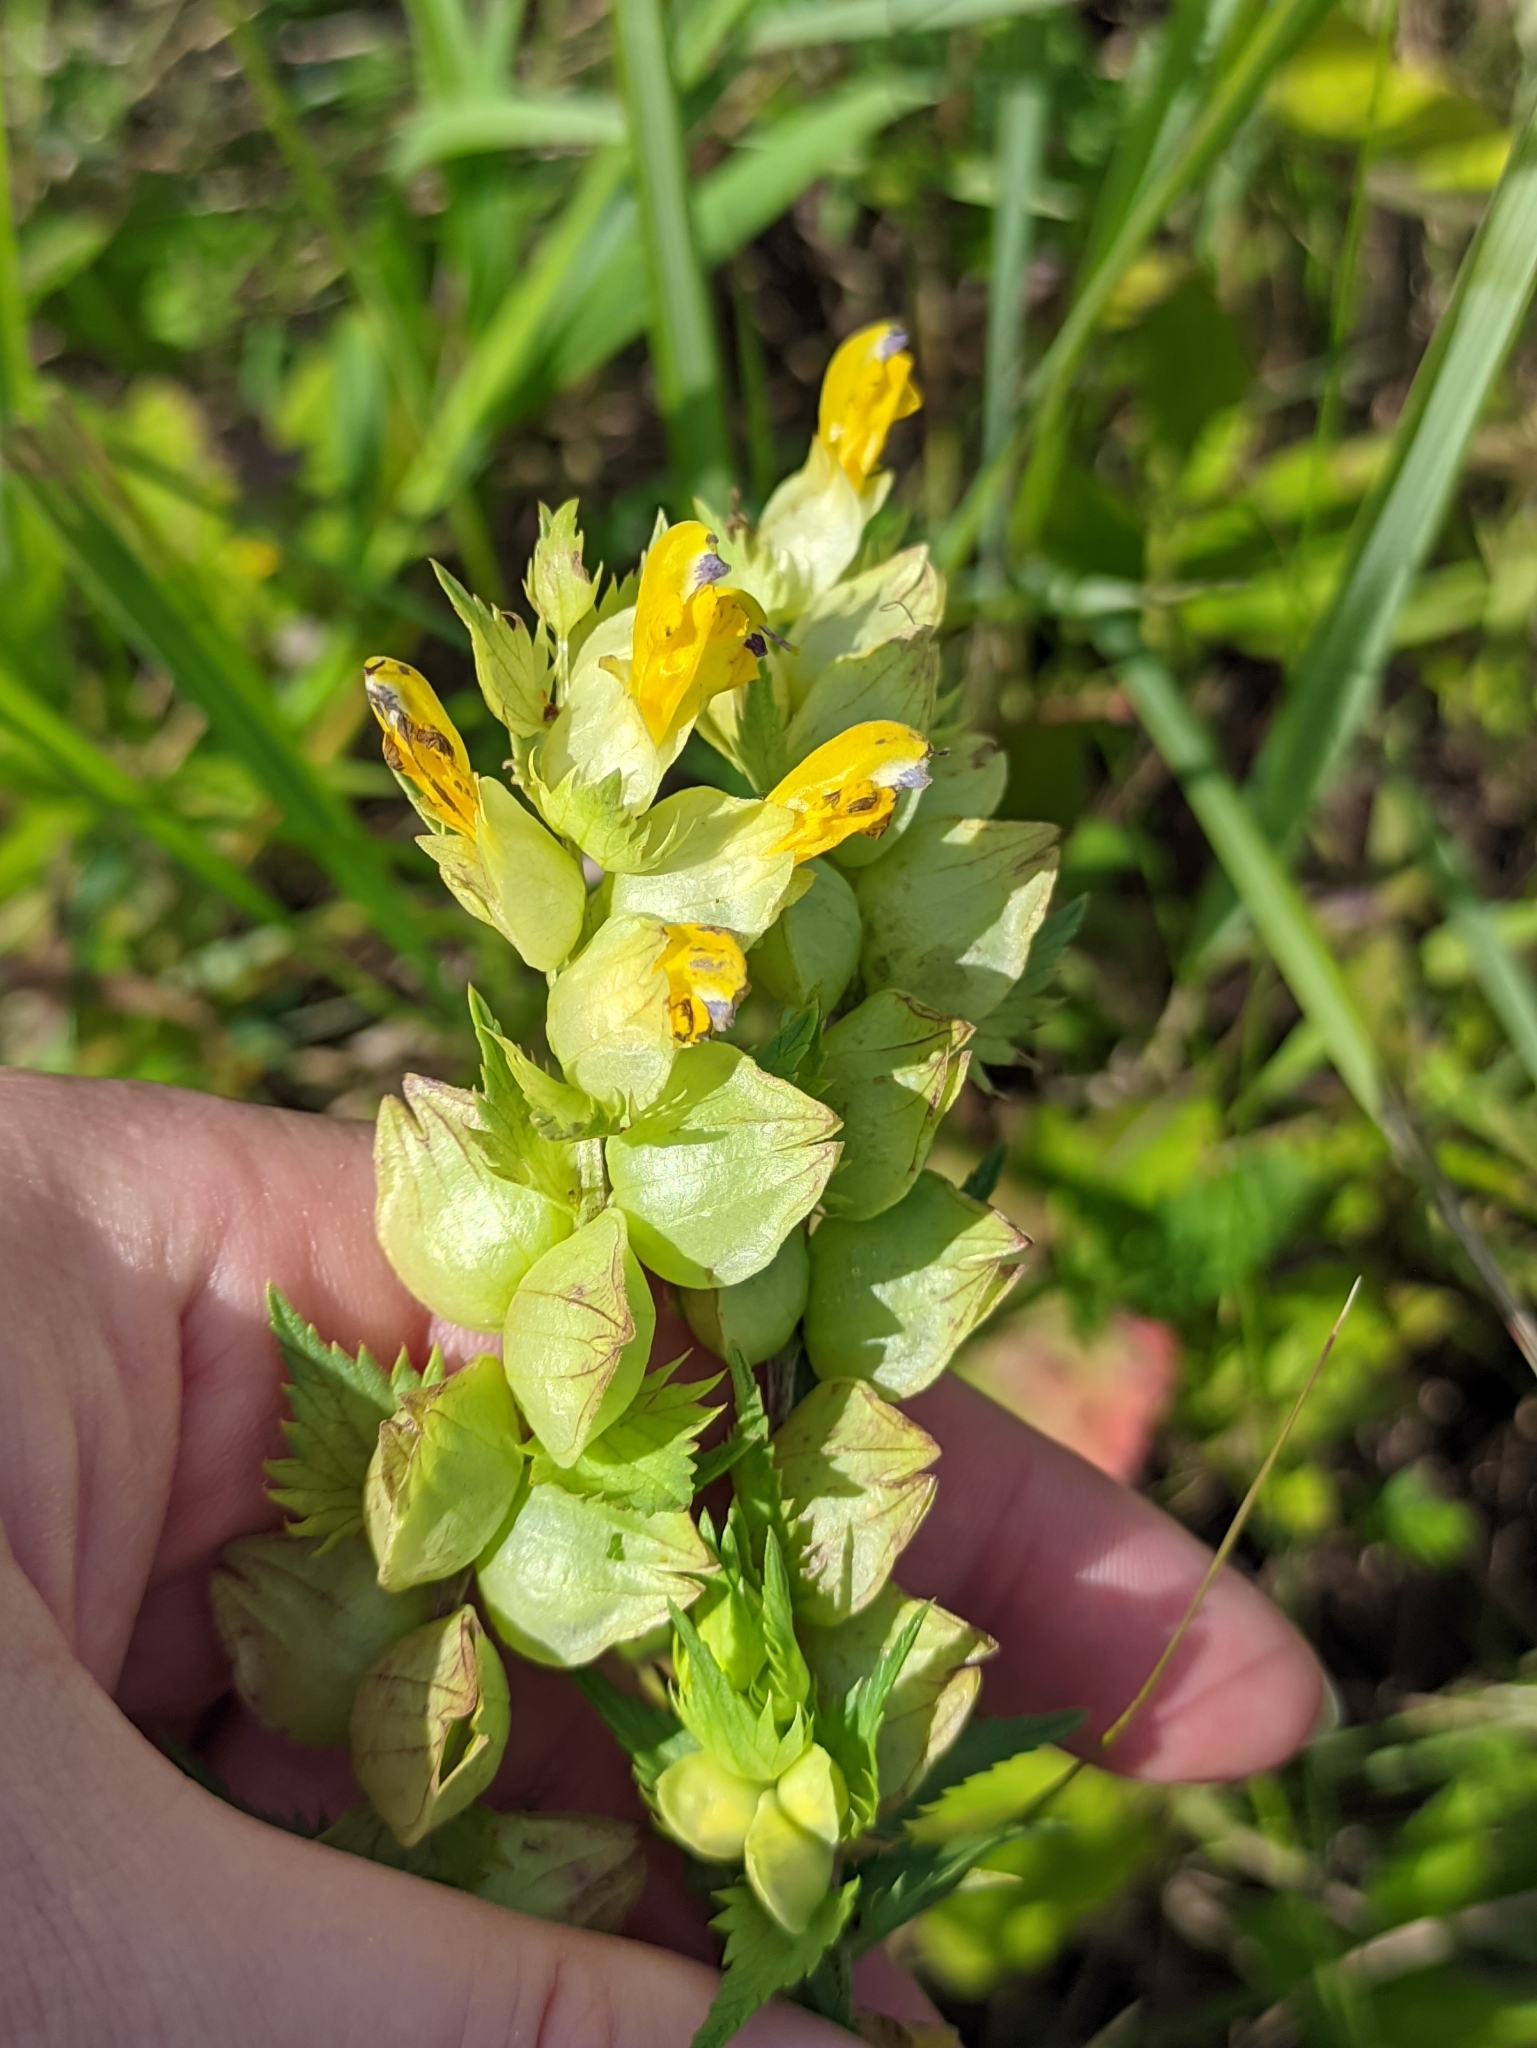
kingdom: Plantae
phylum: Tracheophyta
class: Magnoliopsida
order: Lamiales
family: Orobanchaceae
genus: Rhinanthus
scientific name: Rhinanthus serotinus
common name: Late-flowering yellow rattle
